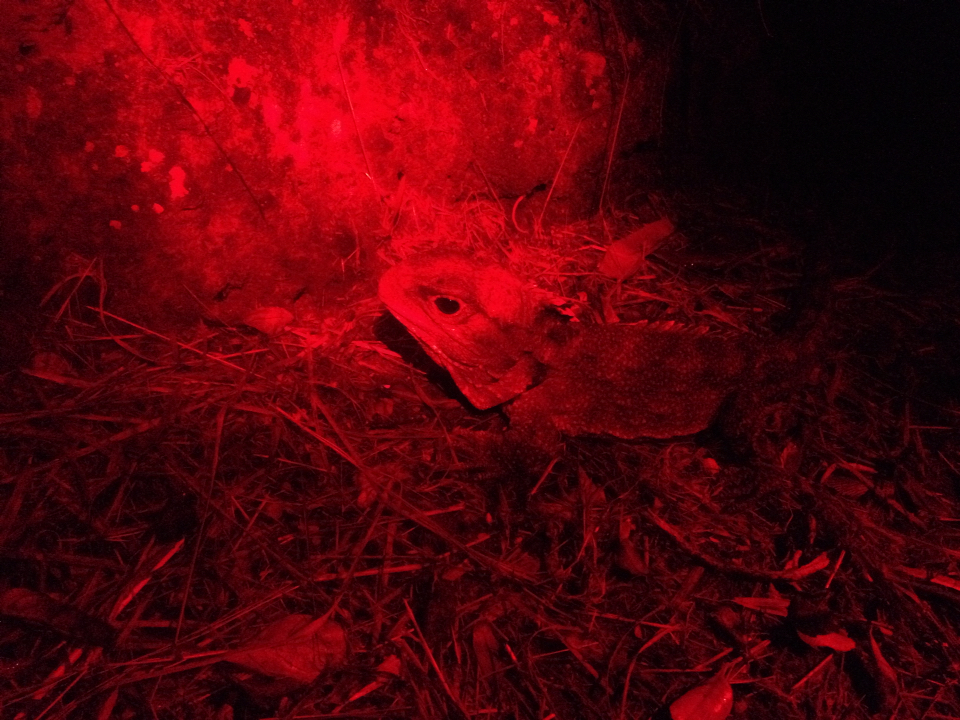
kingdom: Animalia
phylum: Chordata
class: Sphenodontia
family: Sphenodontidae
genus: Sphenodon
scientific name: Sphenodon punctatus
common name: Tuatara
